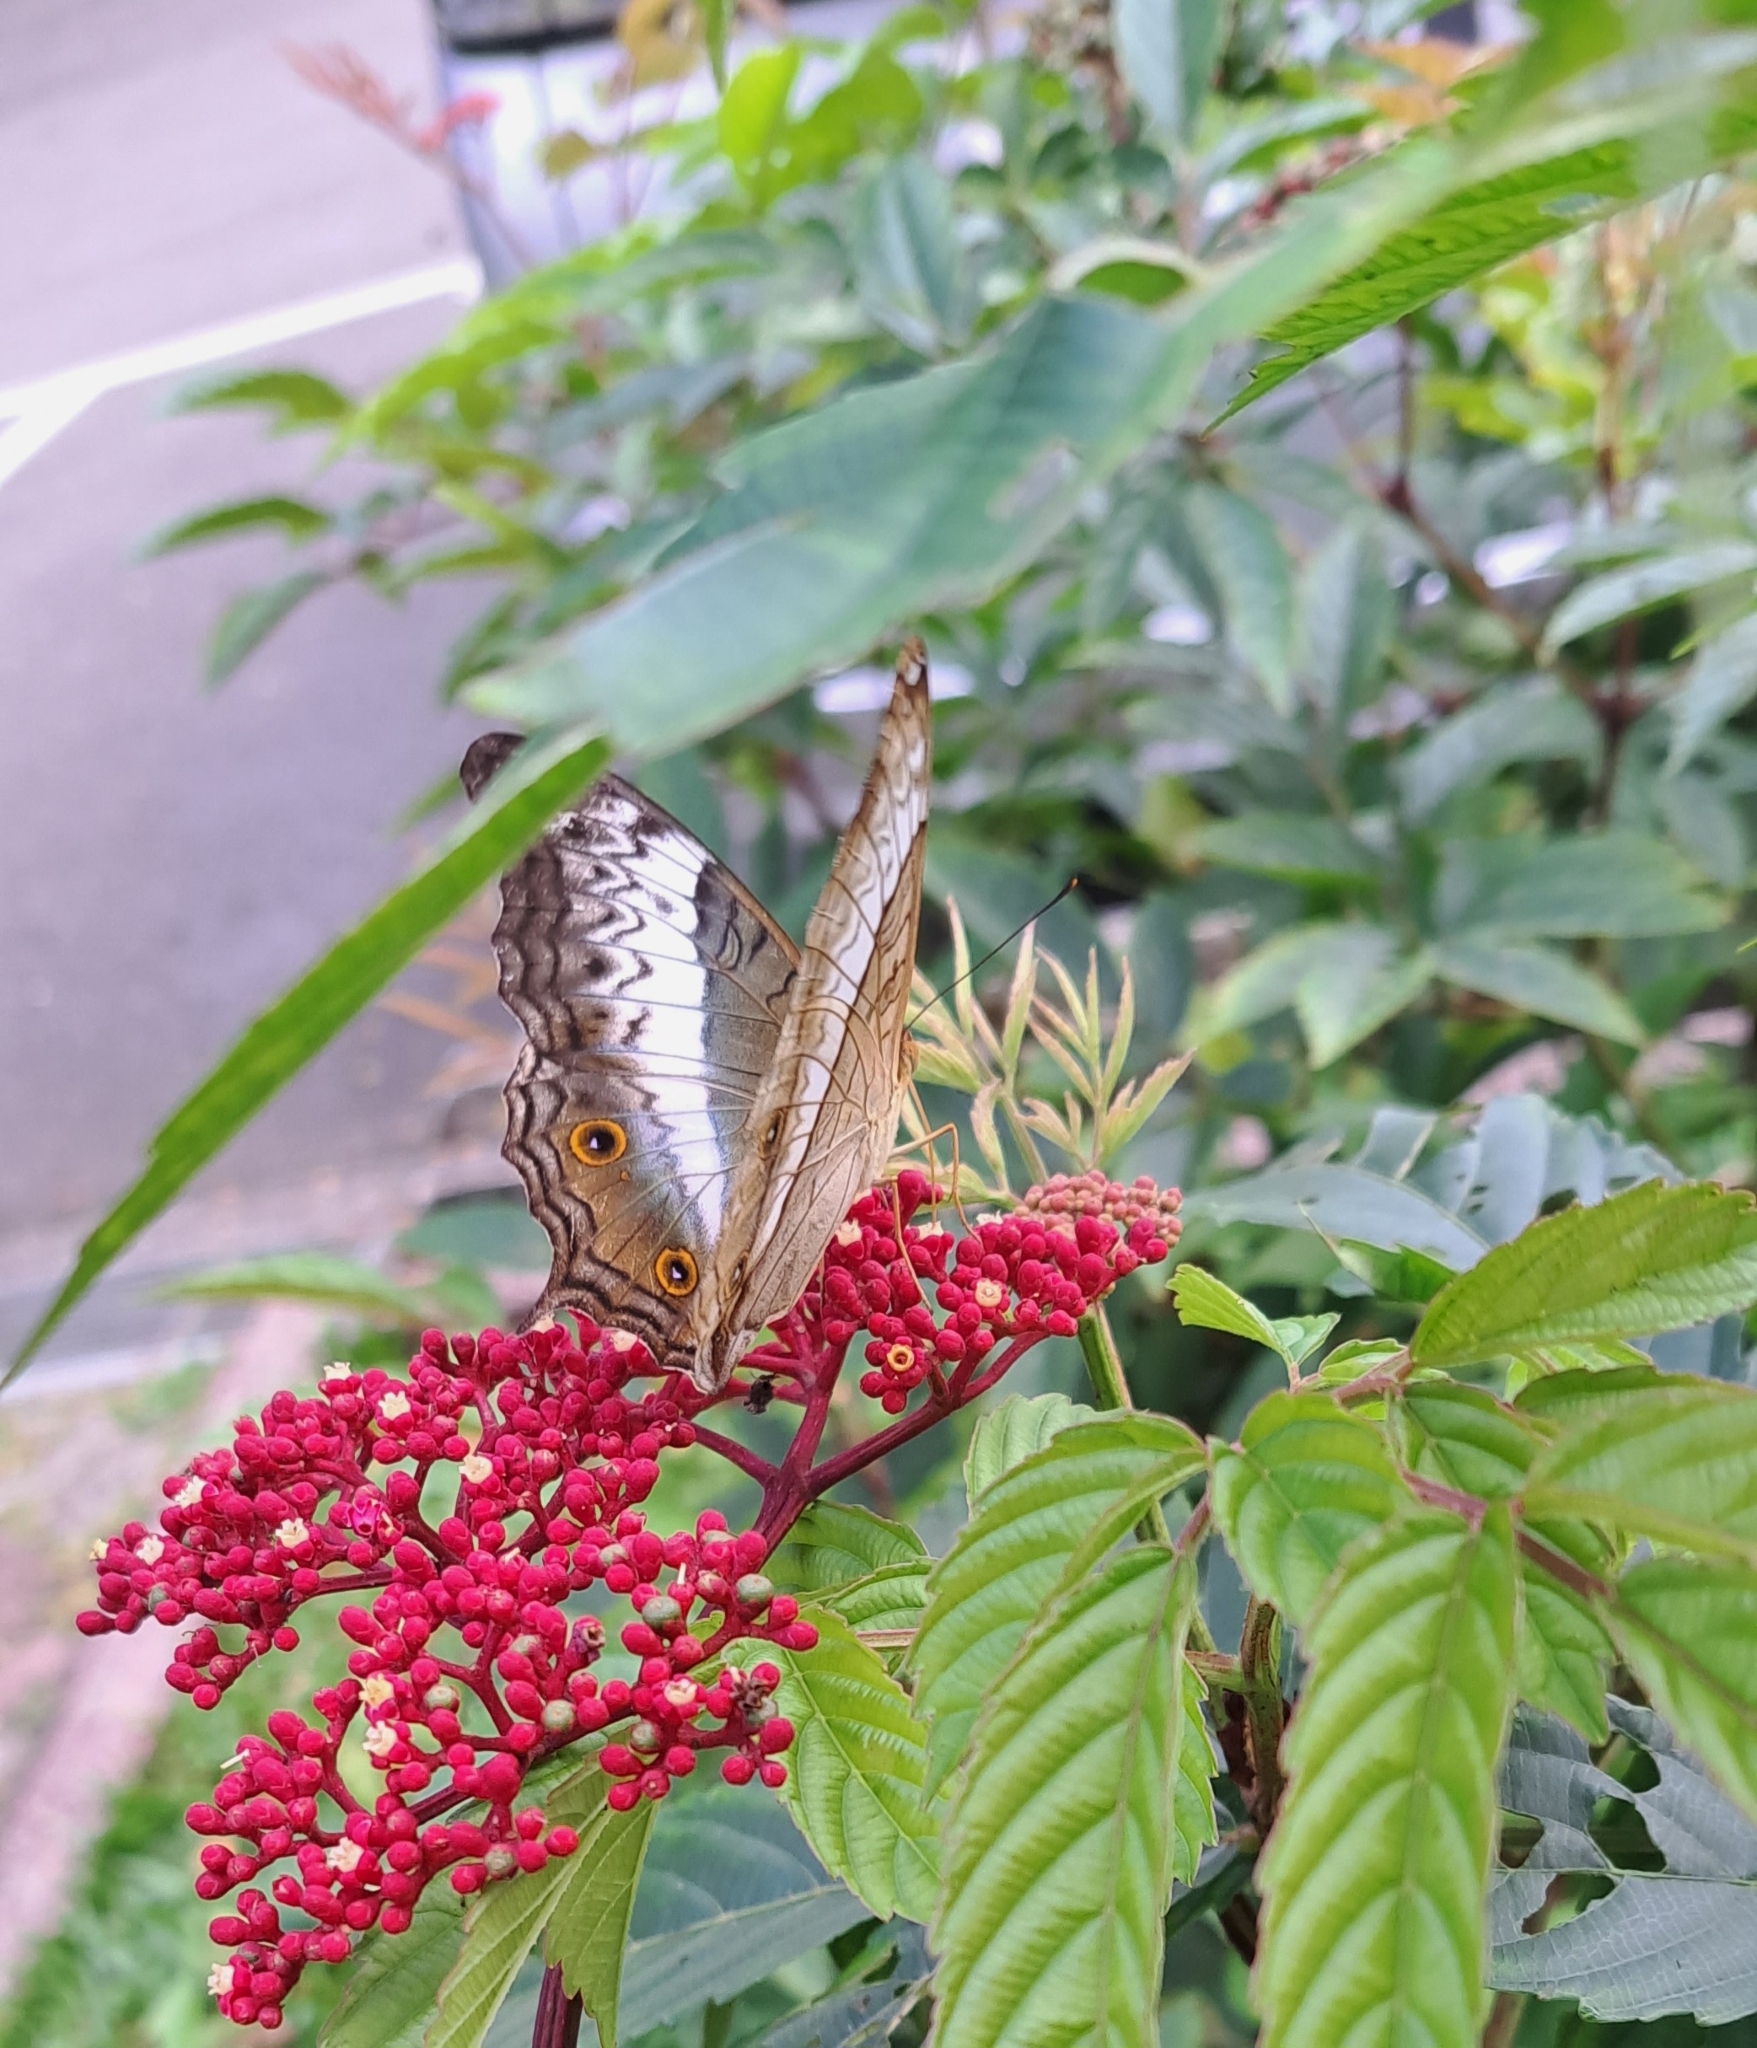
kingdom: Animalia
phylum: Arthropoda
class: Insecta
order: Lepidoptera
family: Nymphalidae
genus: Vindula
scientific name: Vindula deione
